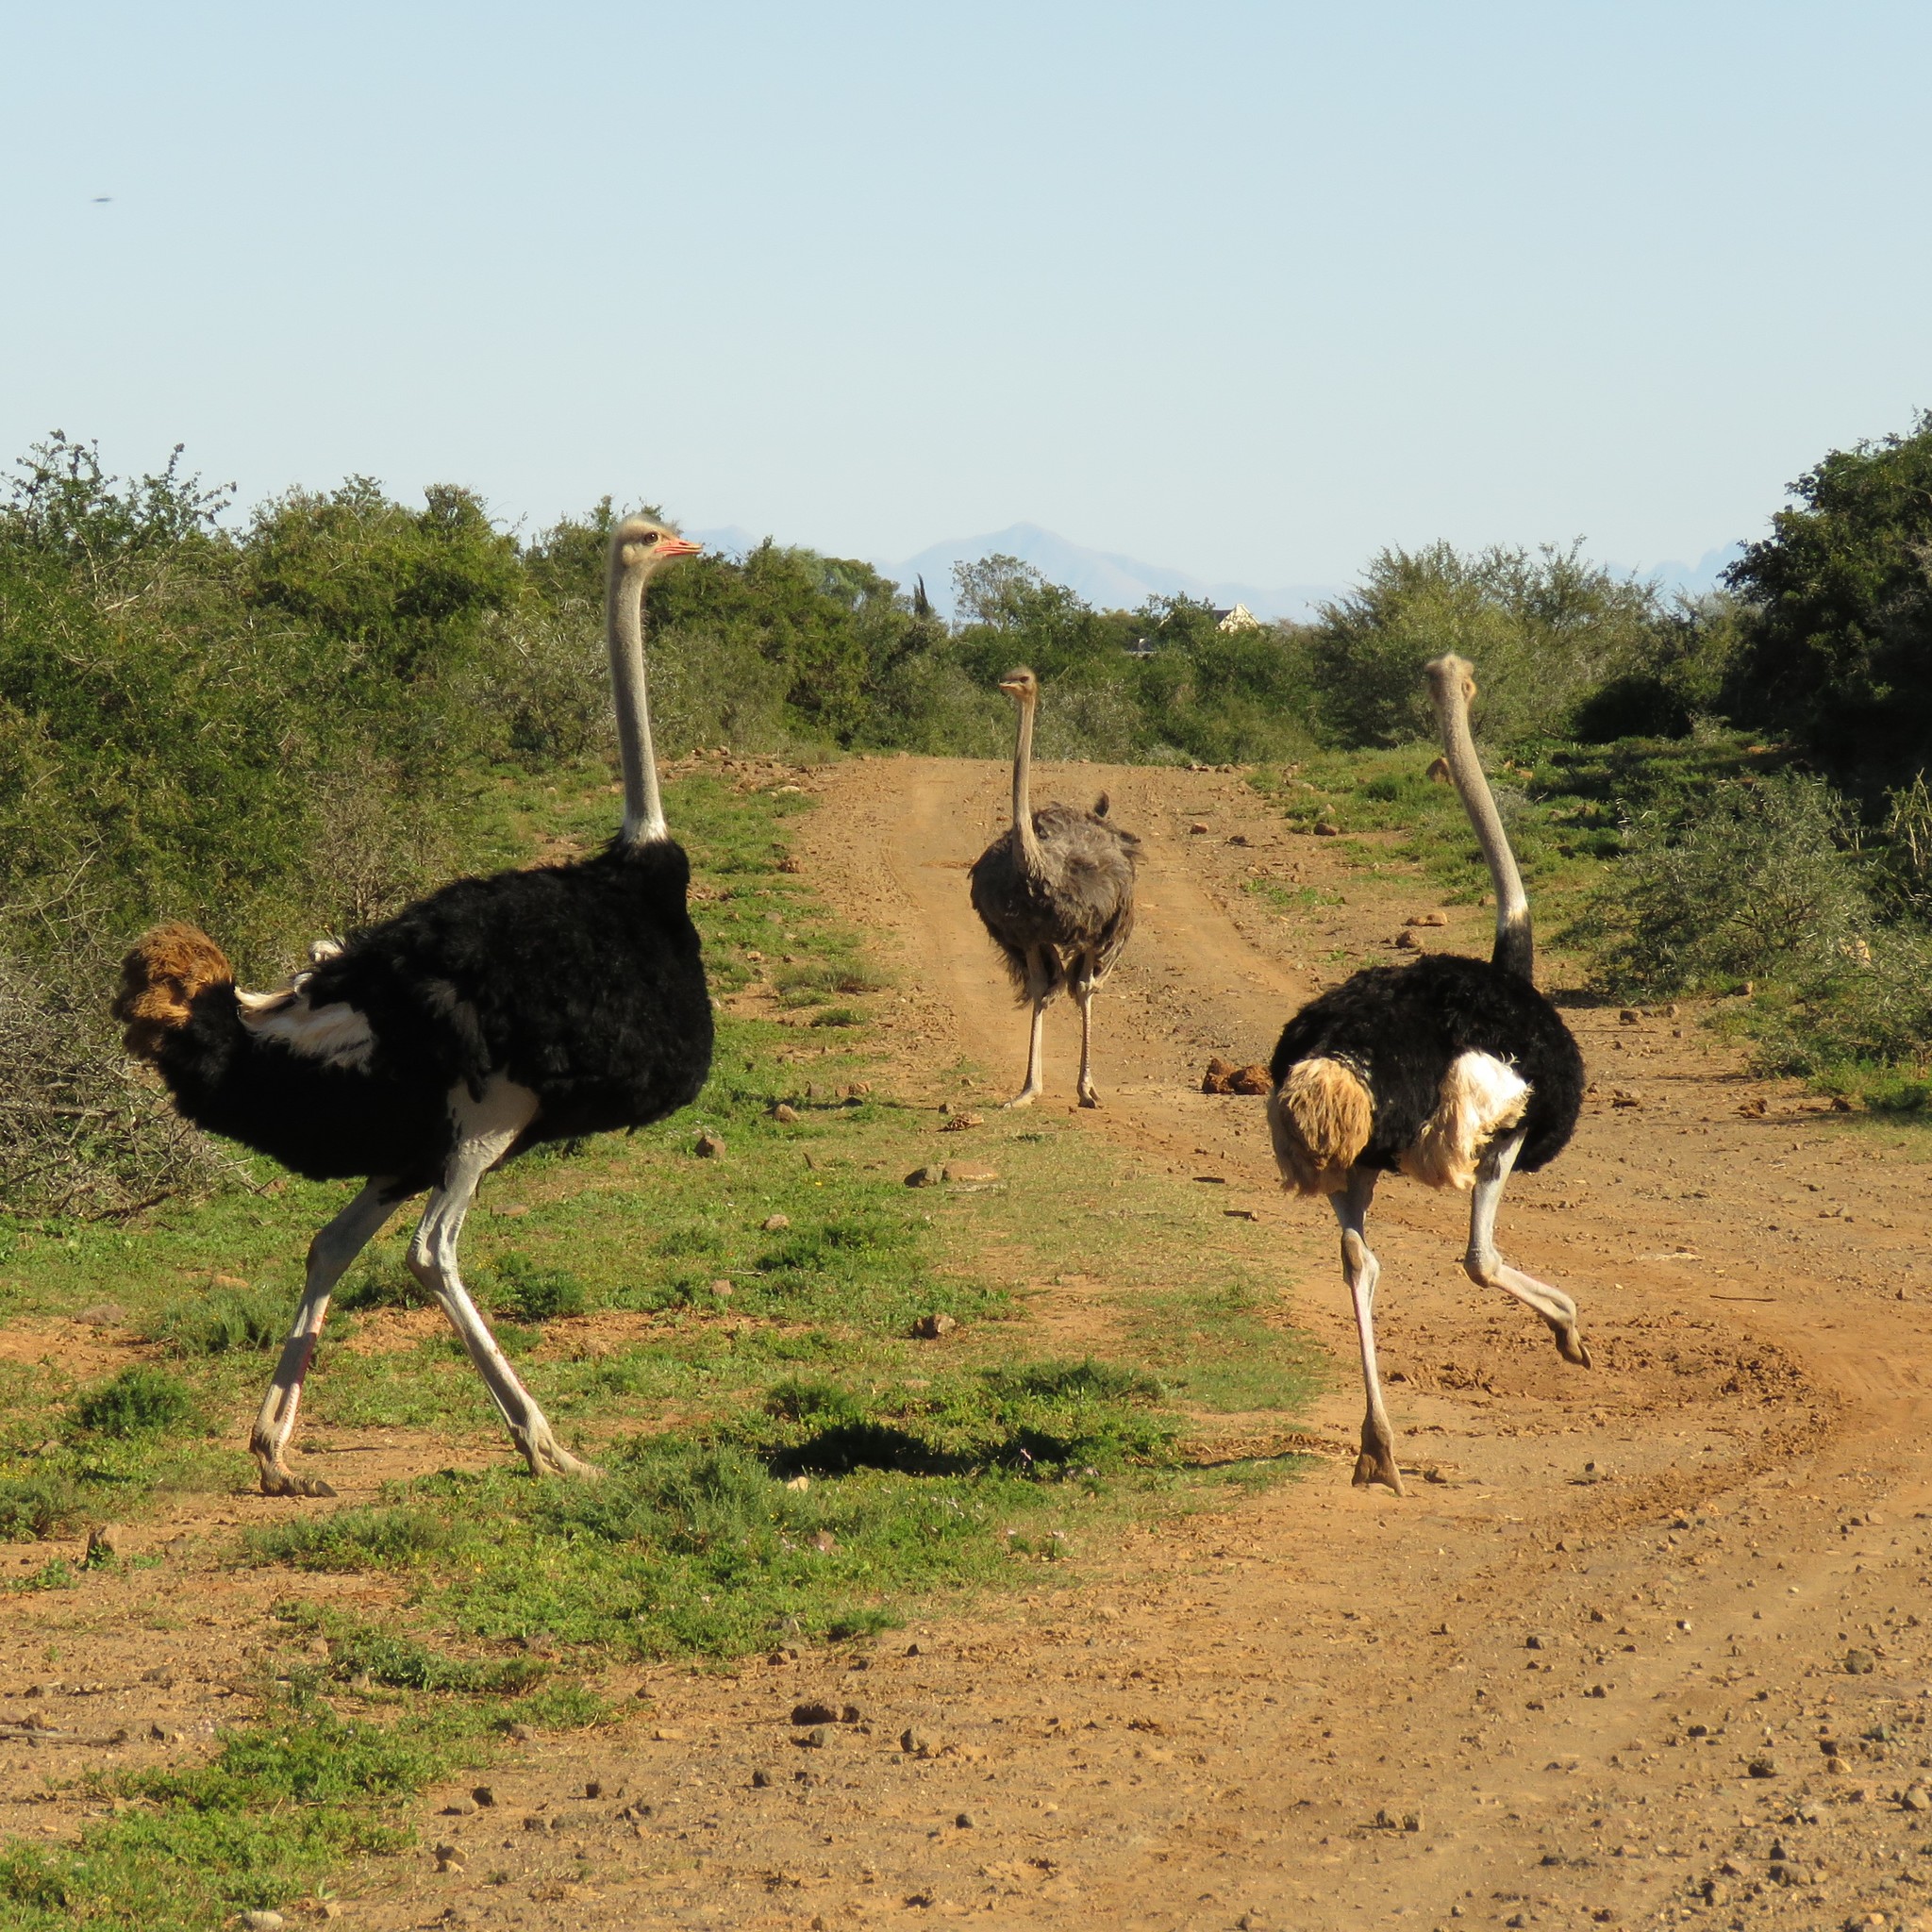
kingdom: Animalia
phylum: Chordata
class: Aves
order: Struthioniformes
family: Struthionidae
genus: Struthio
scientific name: Struthio camelus
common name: Common ostrich
